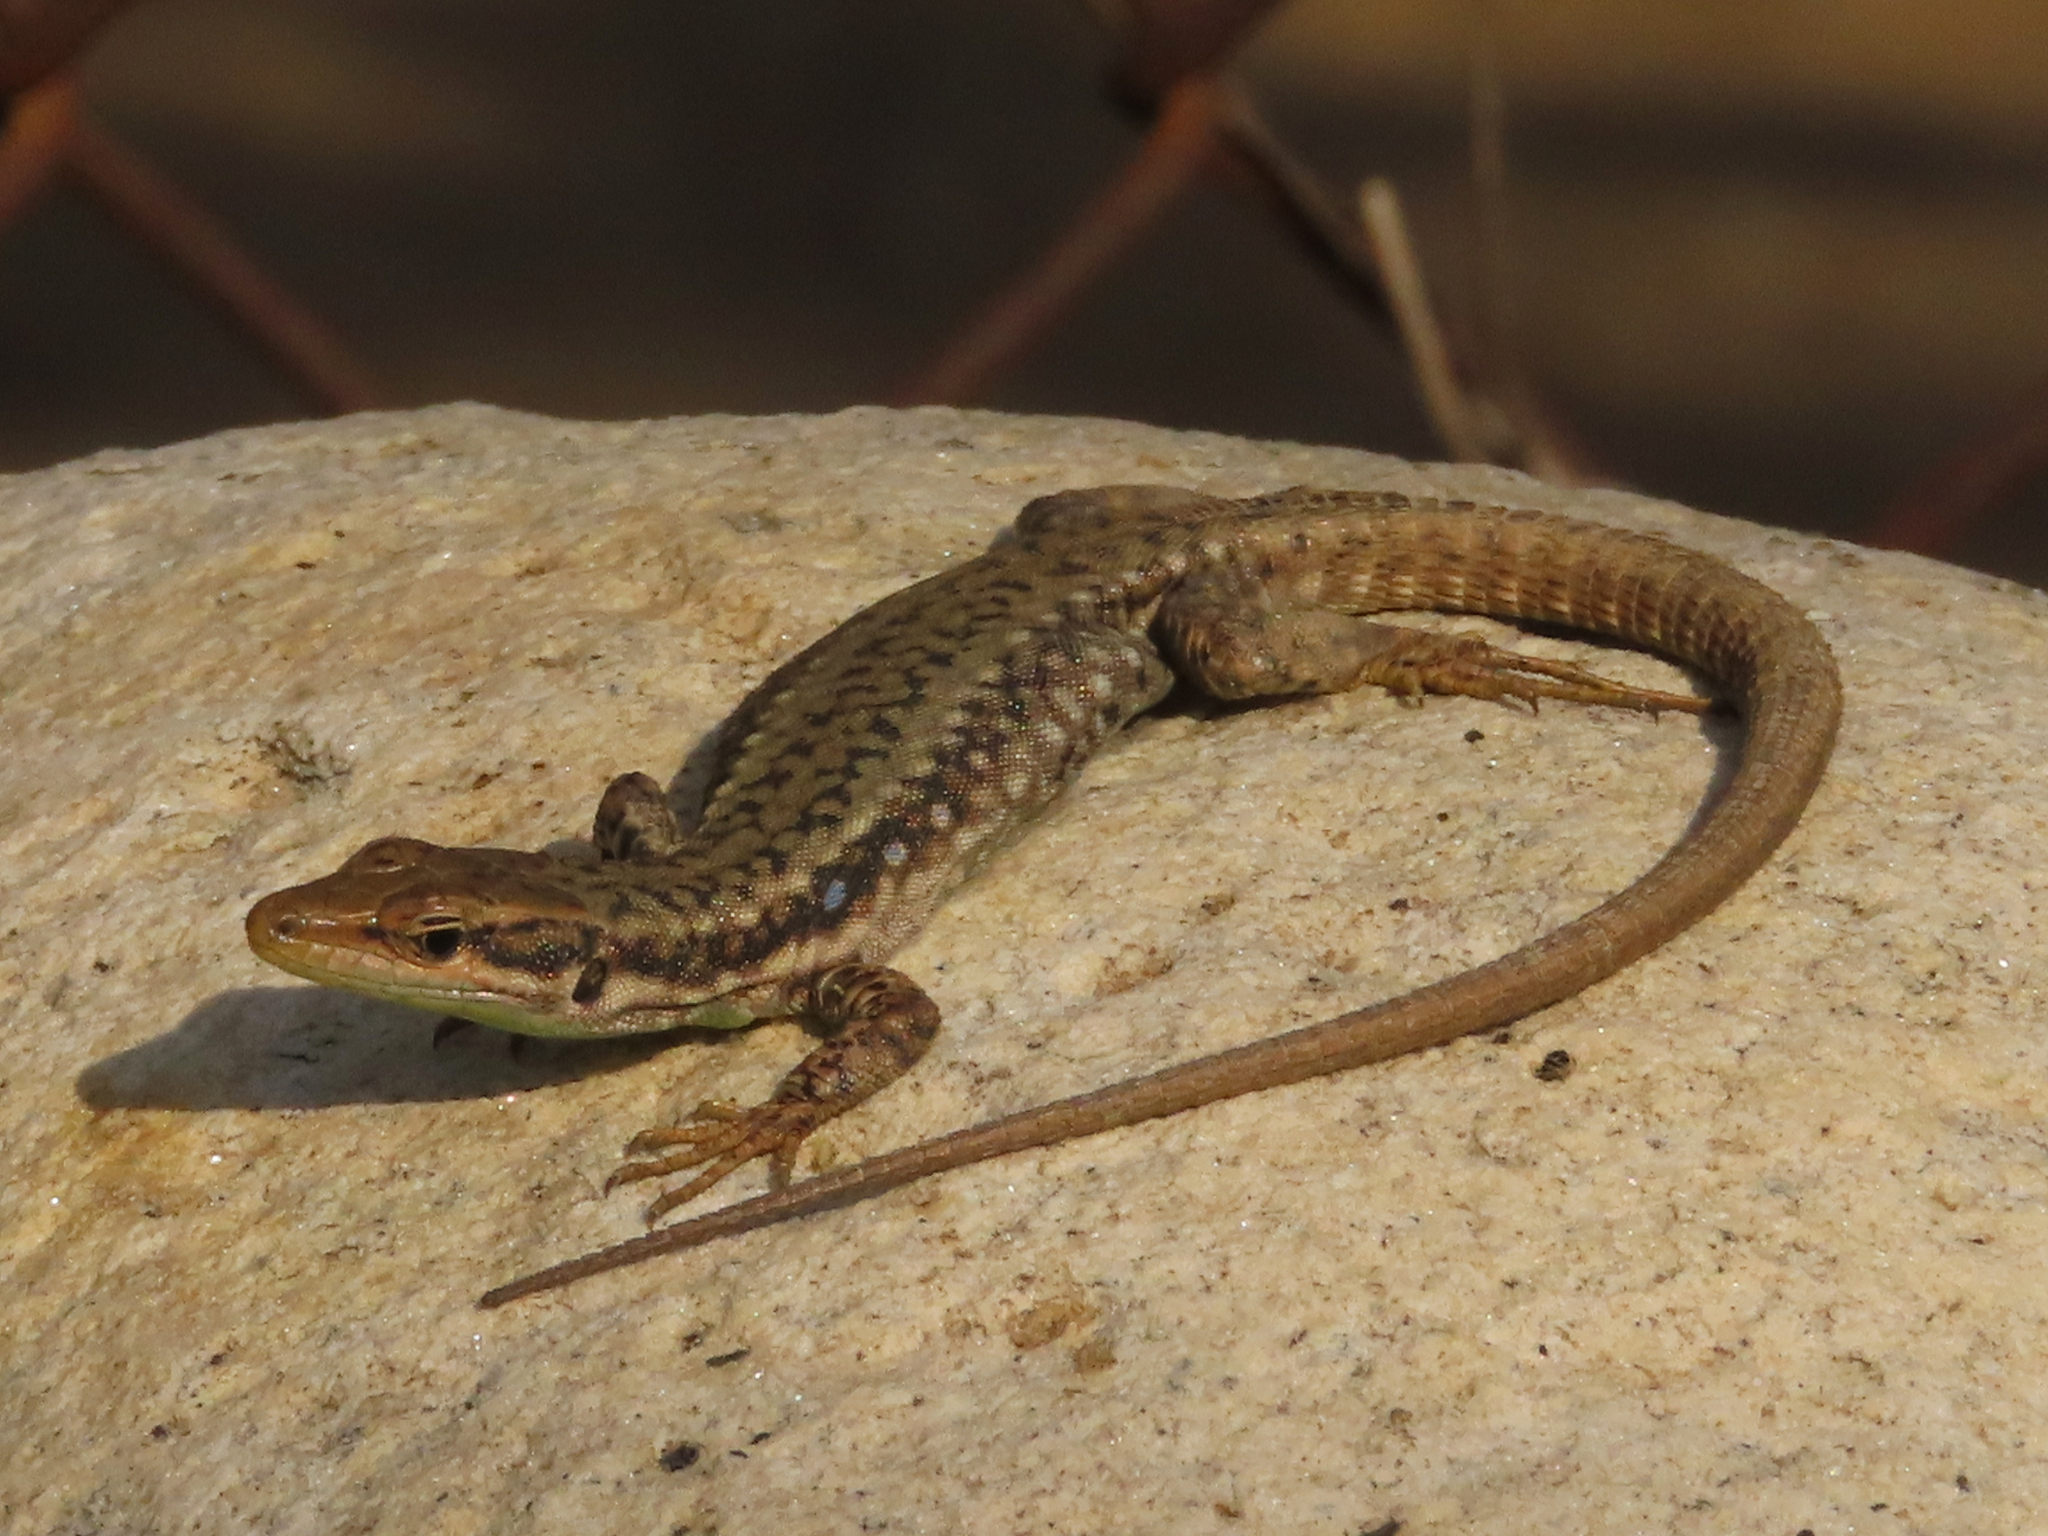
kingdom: Animalia
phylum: Chordata
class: Squamata
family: Lacertidae
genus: Darevskia
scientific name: Darevskia raddei
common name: Radde's lizard
